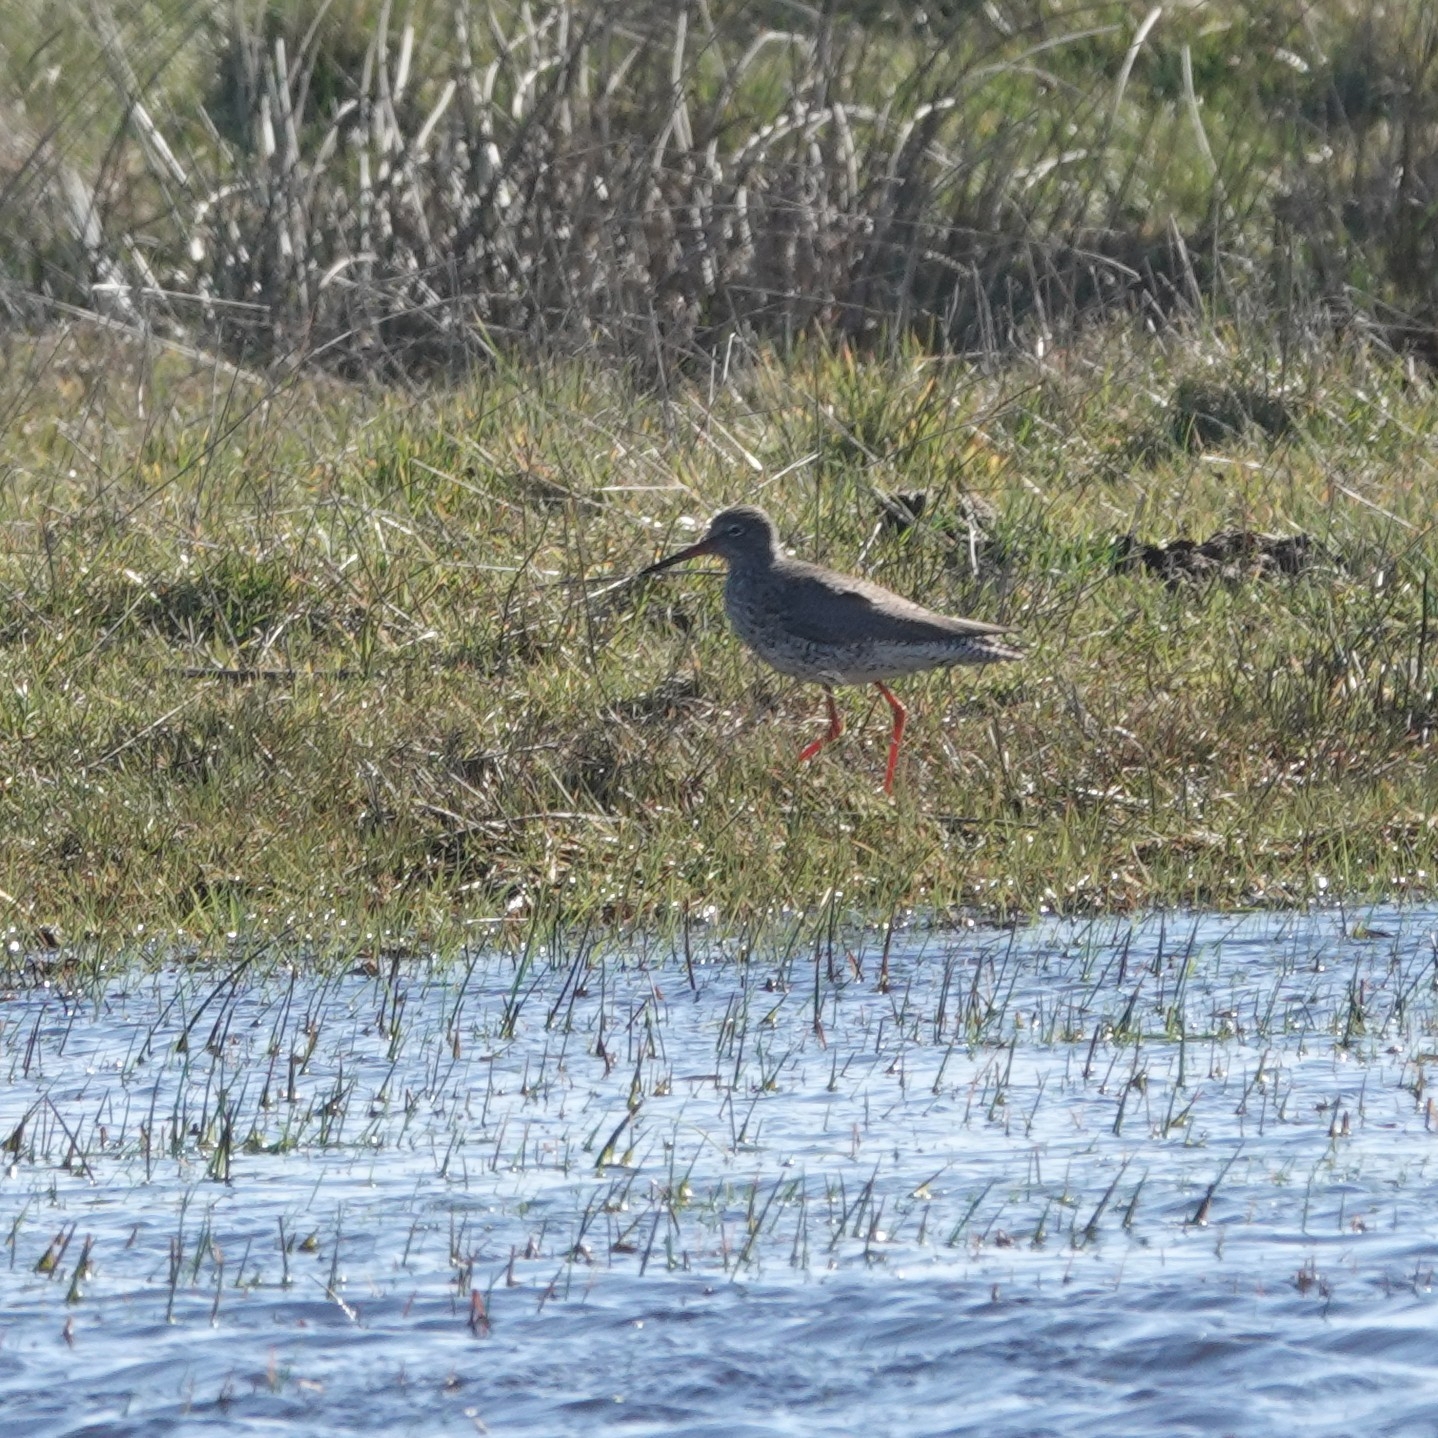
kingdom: Animalia
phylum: Chordata
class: Aves
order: Charadriiformes
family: Scolopacidae
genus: Tringa
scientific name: Tringa totanus
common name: Common redshank
